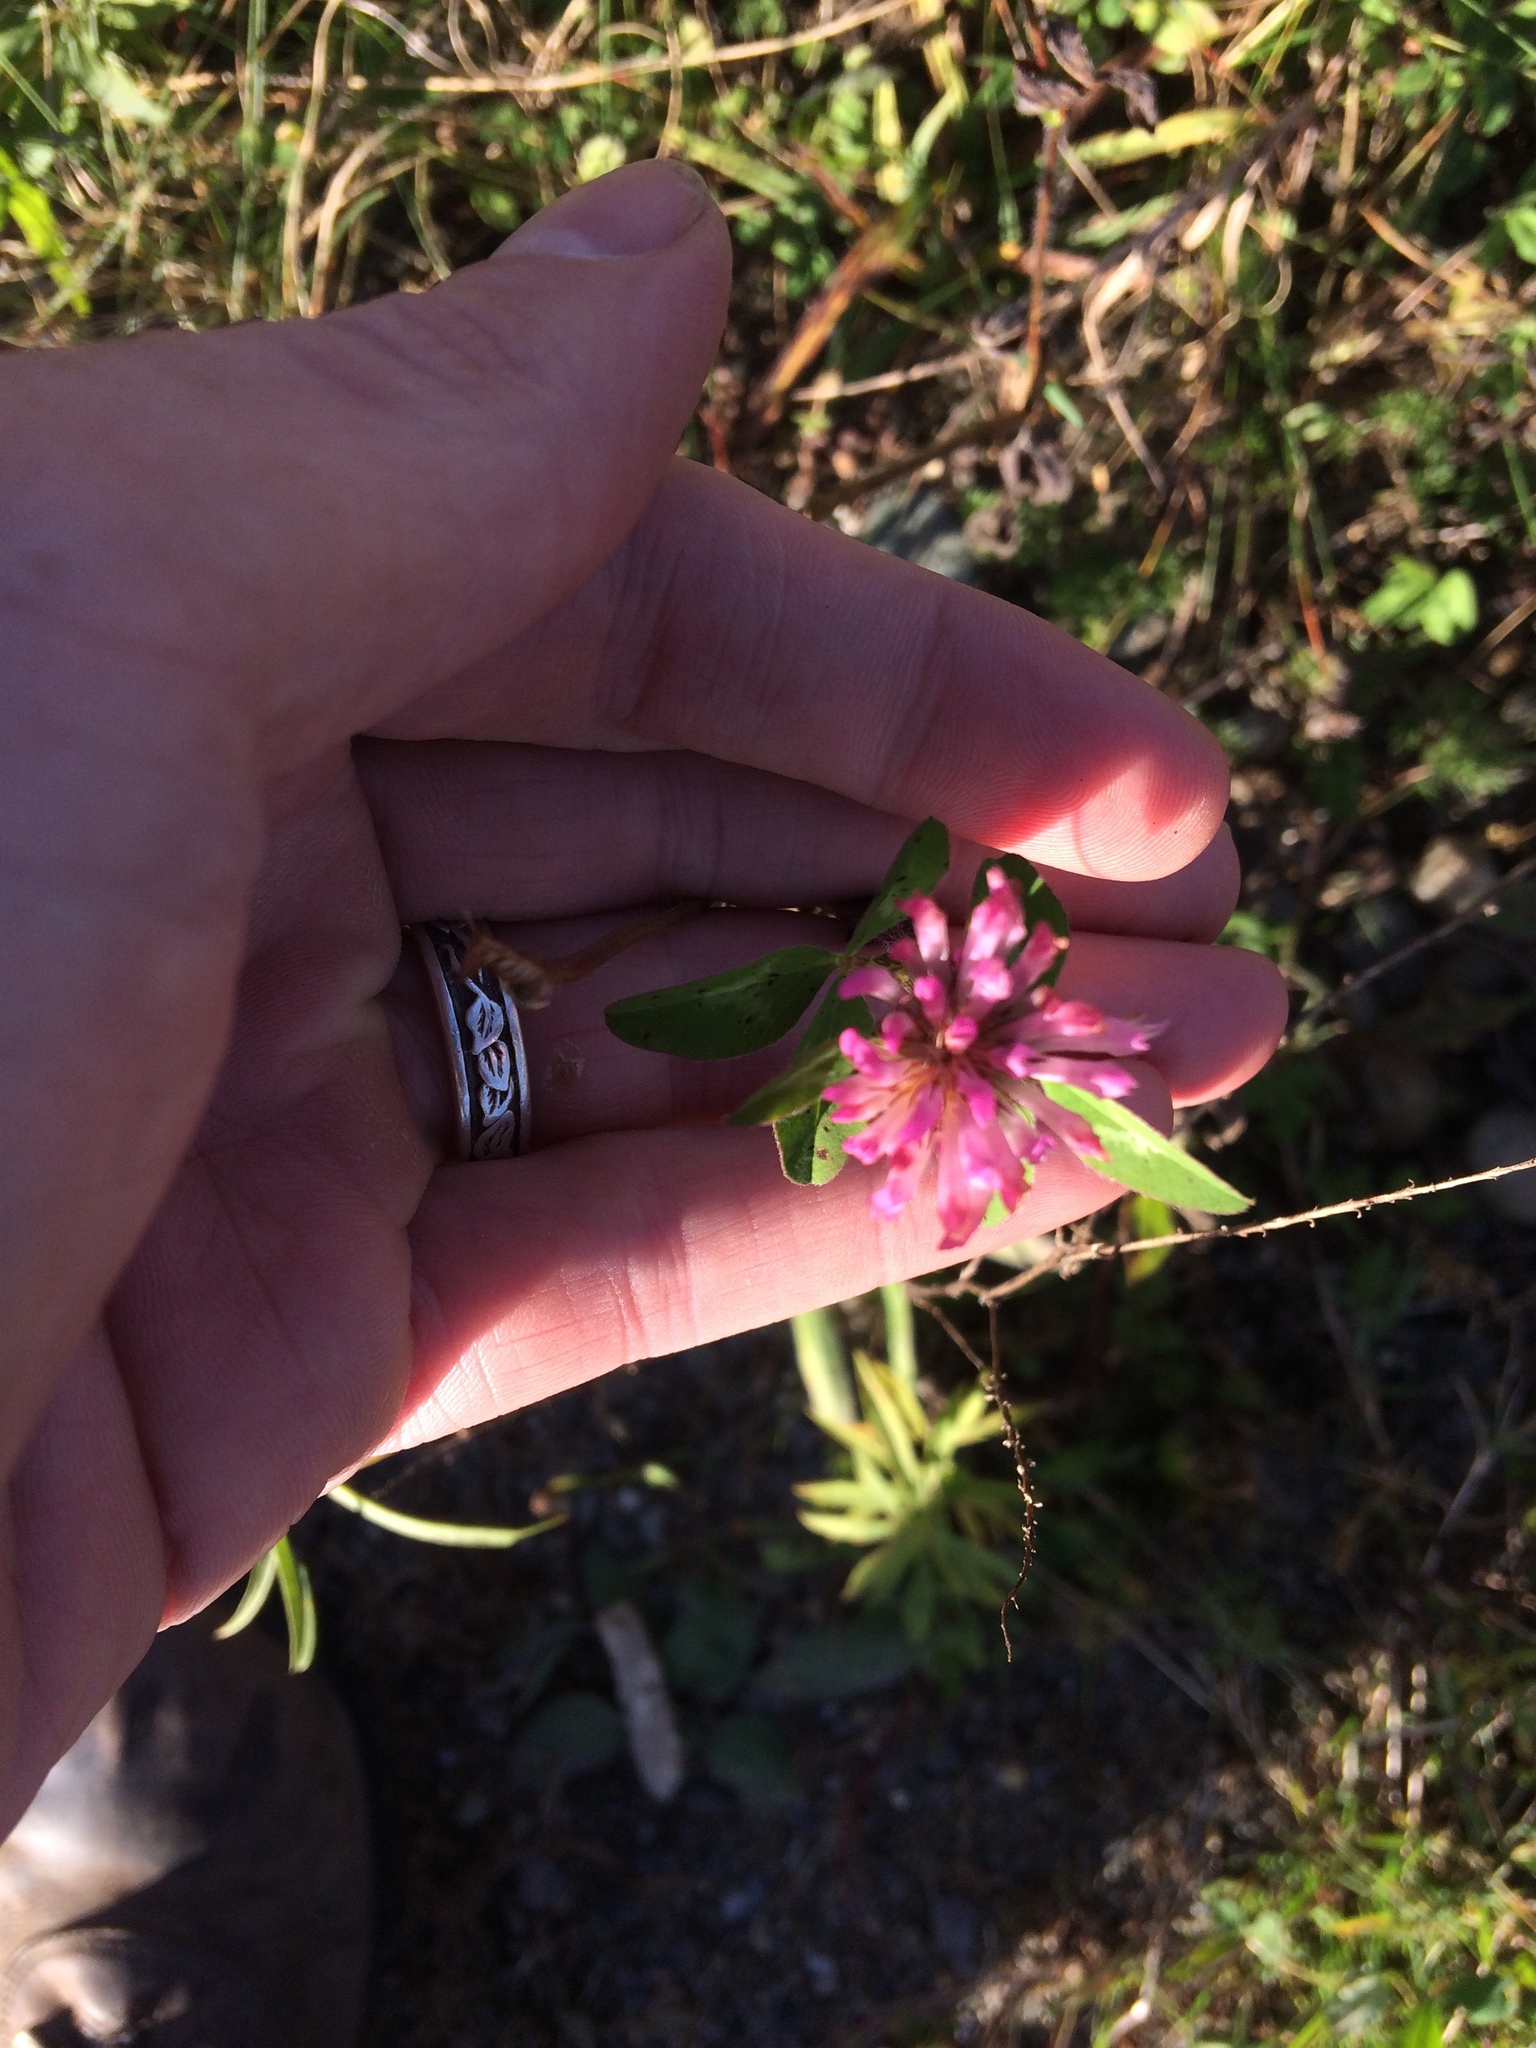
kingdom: Plantae
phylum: Tracheophyta
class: Magnoliopsida
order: Fabales
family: Fabaceae
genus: Trifolium
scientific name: Trifolium pratense
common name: Red clover
